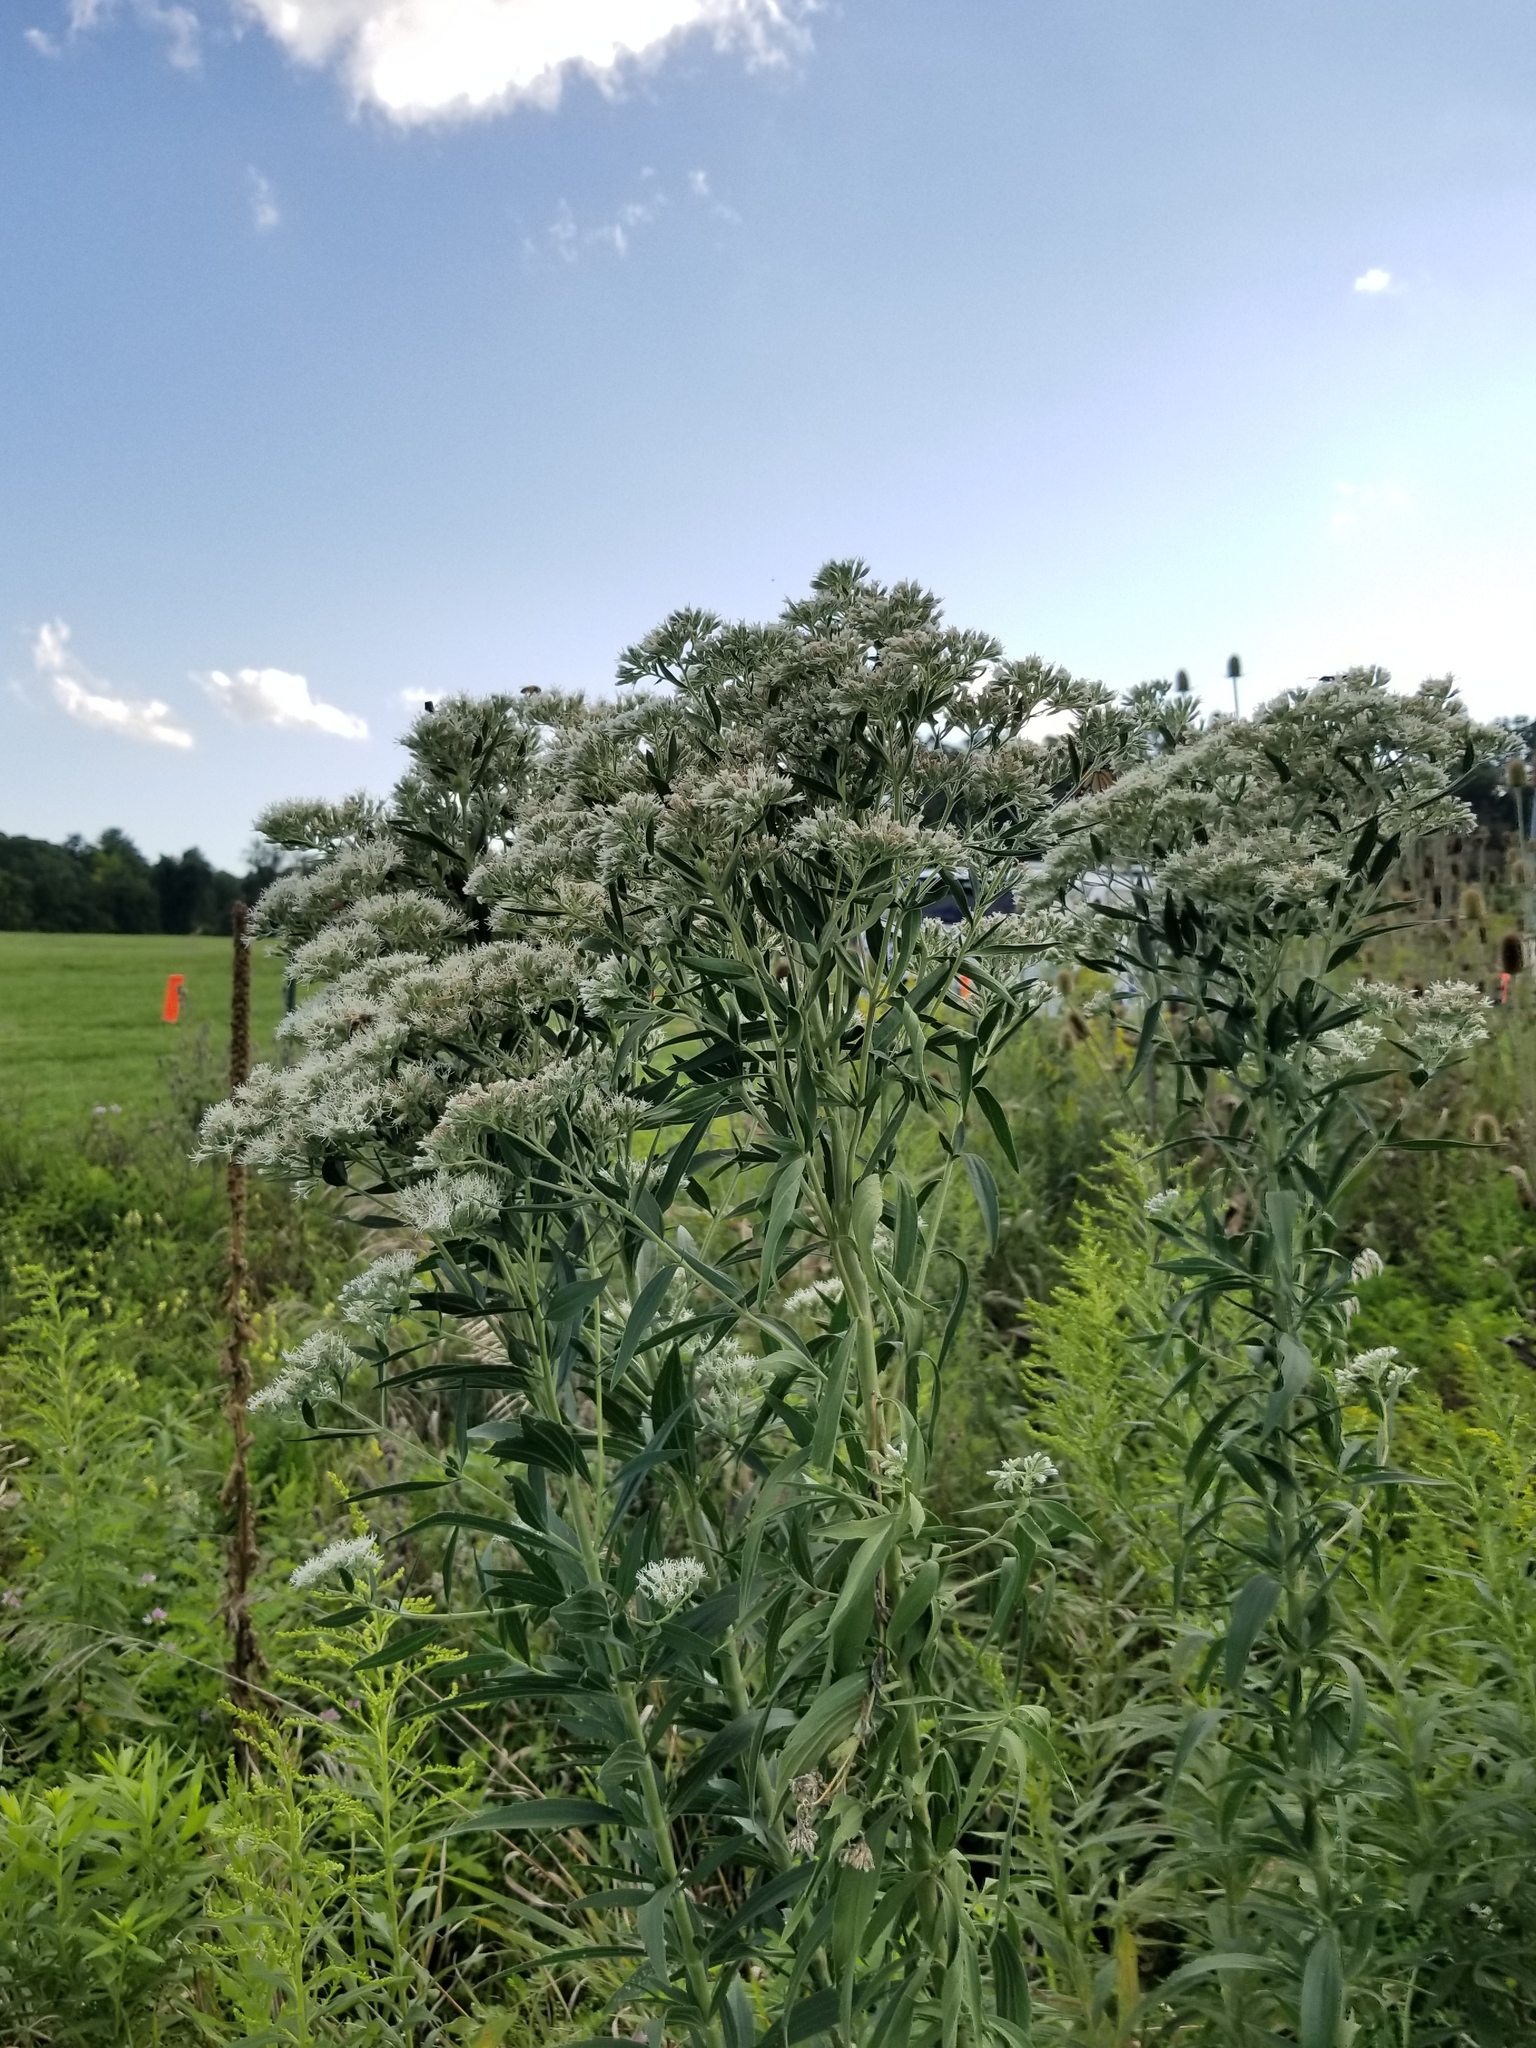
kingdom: Plantae
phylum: Tracheophyta
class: Magnoliopsida
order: Asterales
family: Asteraceae
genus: Eupatorium
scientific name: Eupatorium altissimum
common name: Tall thoroughwort
